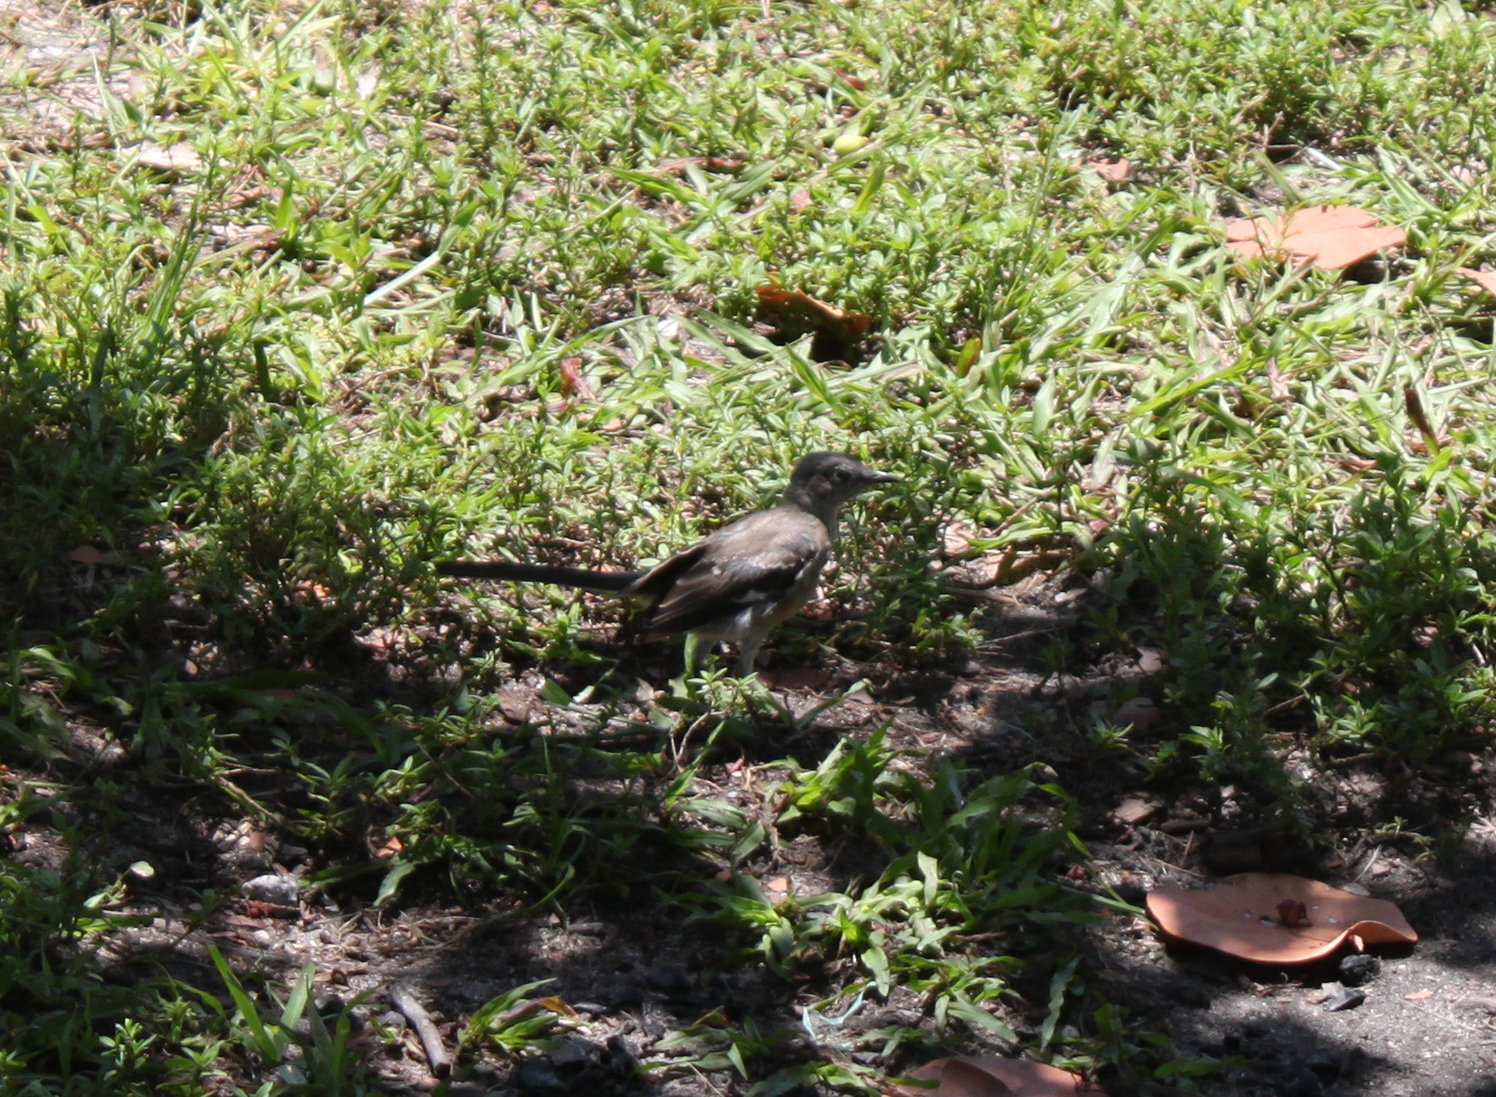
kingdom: Animalia
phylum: Chordata
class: Aves
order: Passeriformes
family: Mimidae
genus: Mimus
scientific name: Mimus polyglottos
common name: Northern mockingbird
